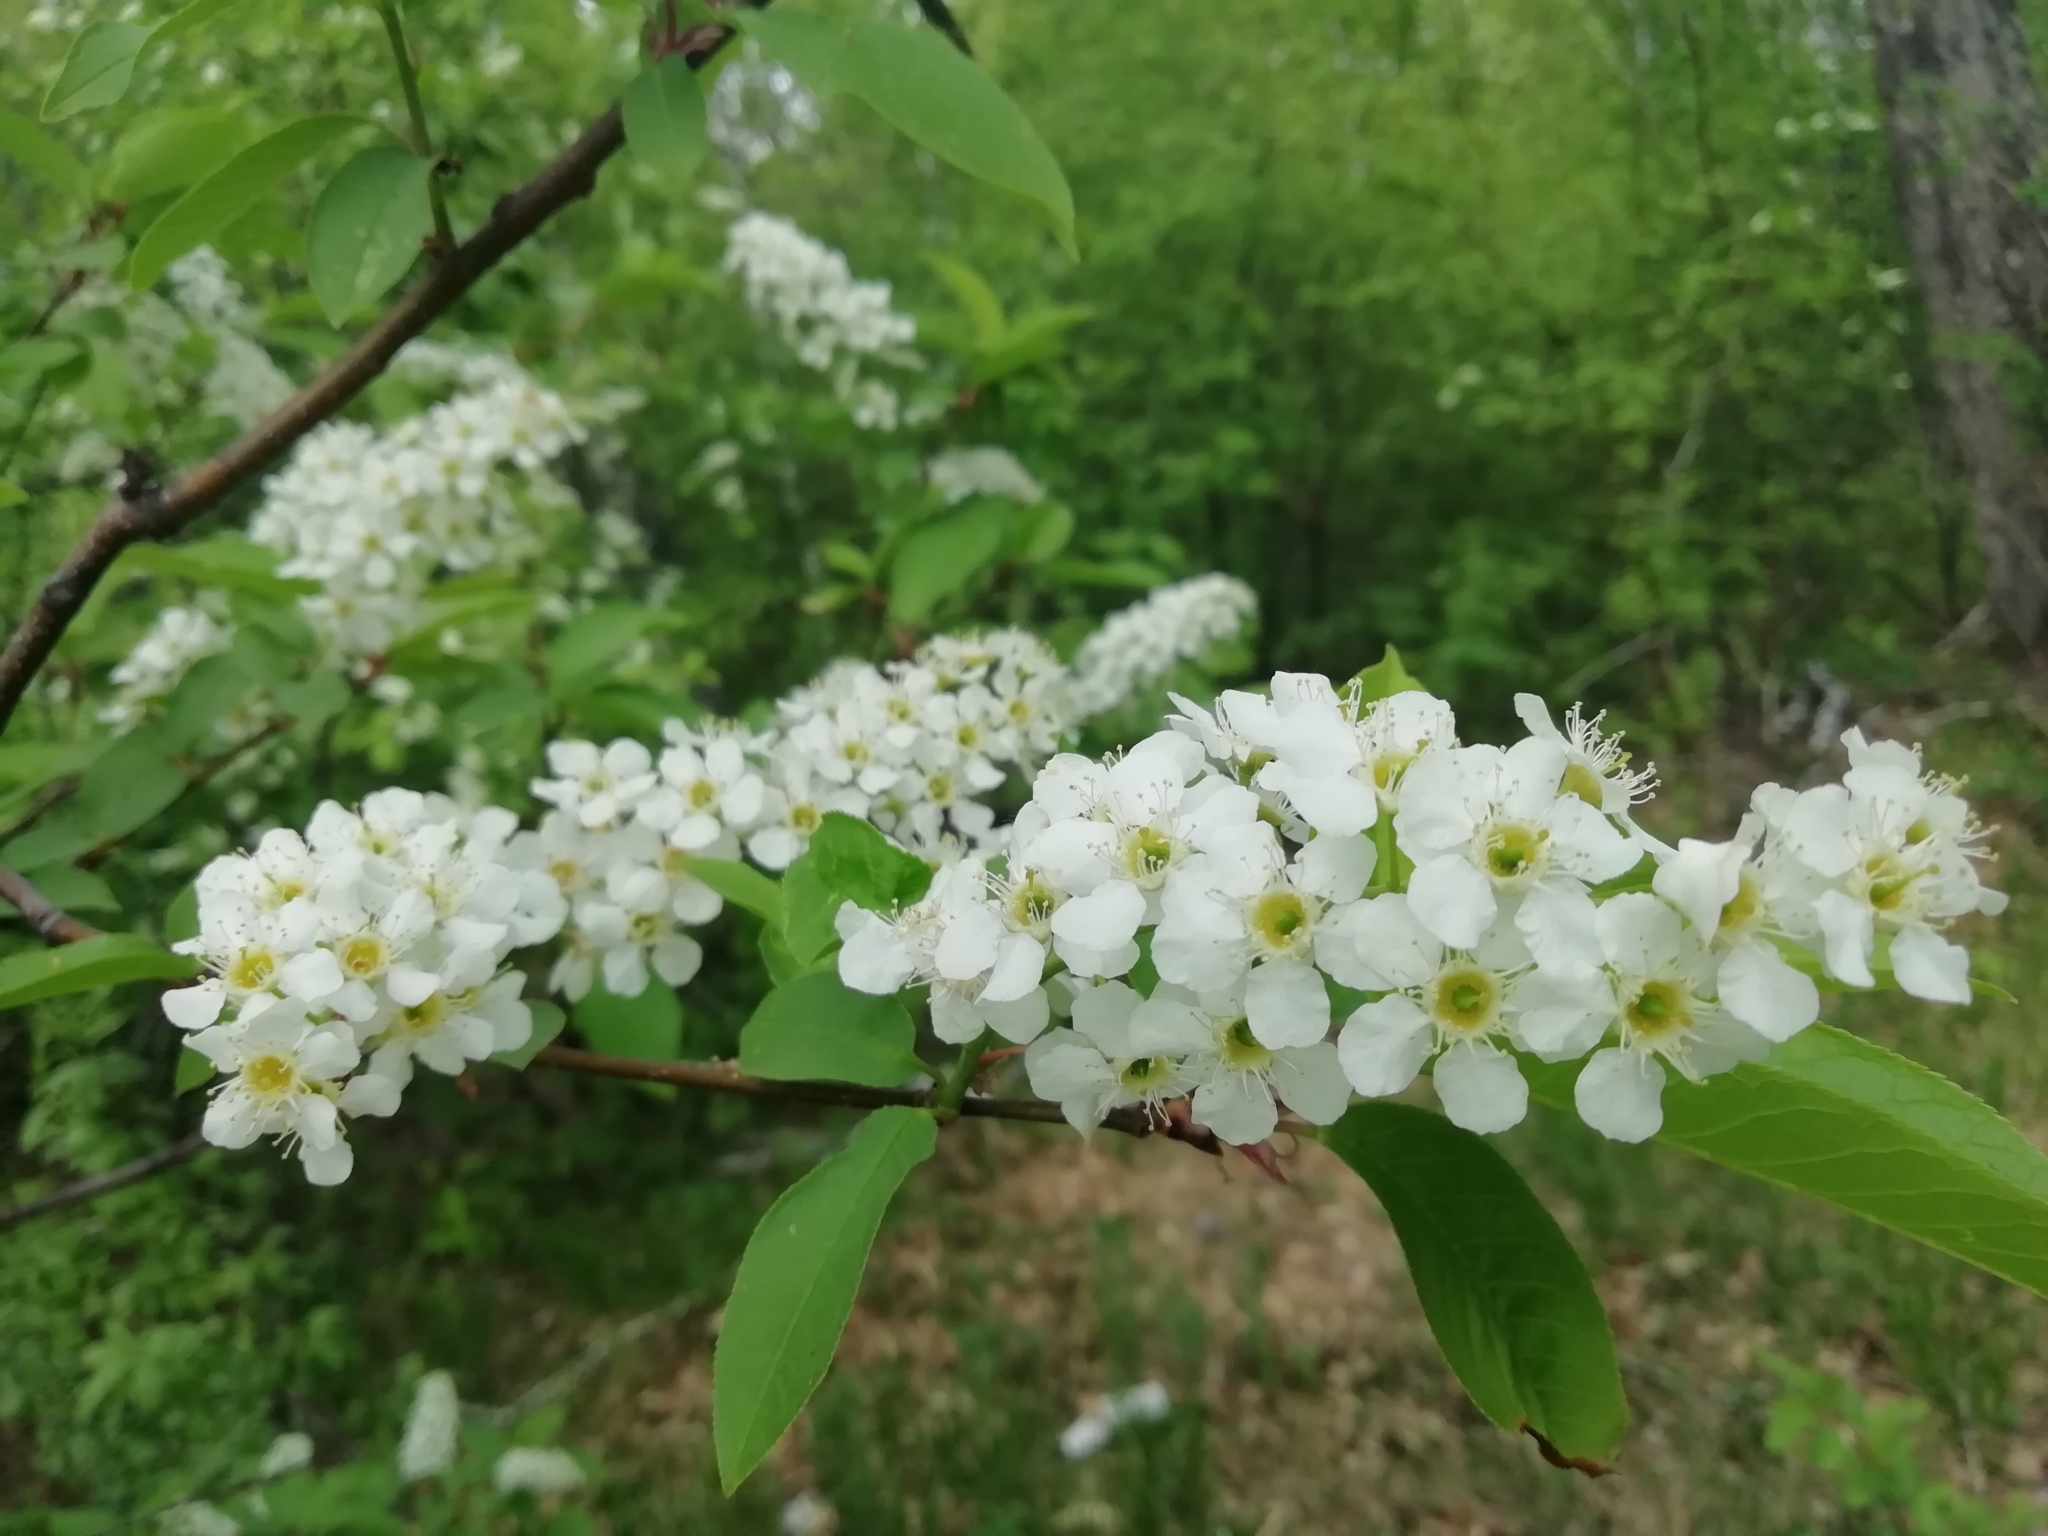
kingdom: Plantae
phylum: Tracheophyta
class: Magnoliopsida
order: Rosales
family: Rosaceae
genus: Prunus
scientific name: Prunus padus
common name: Bird cherry
